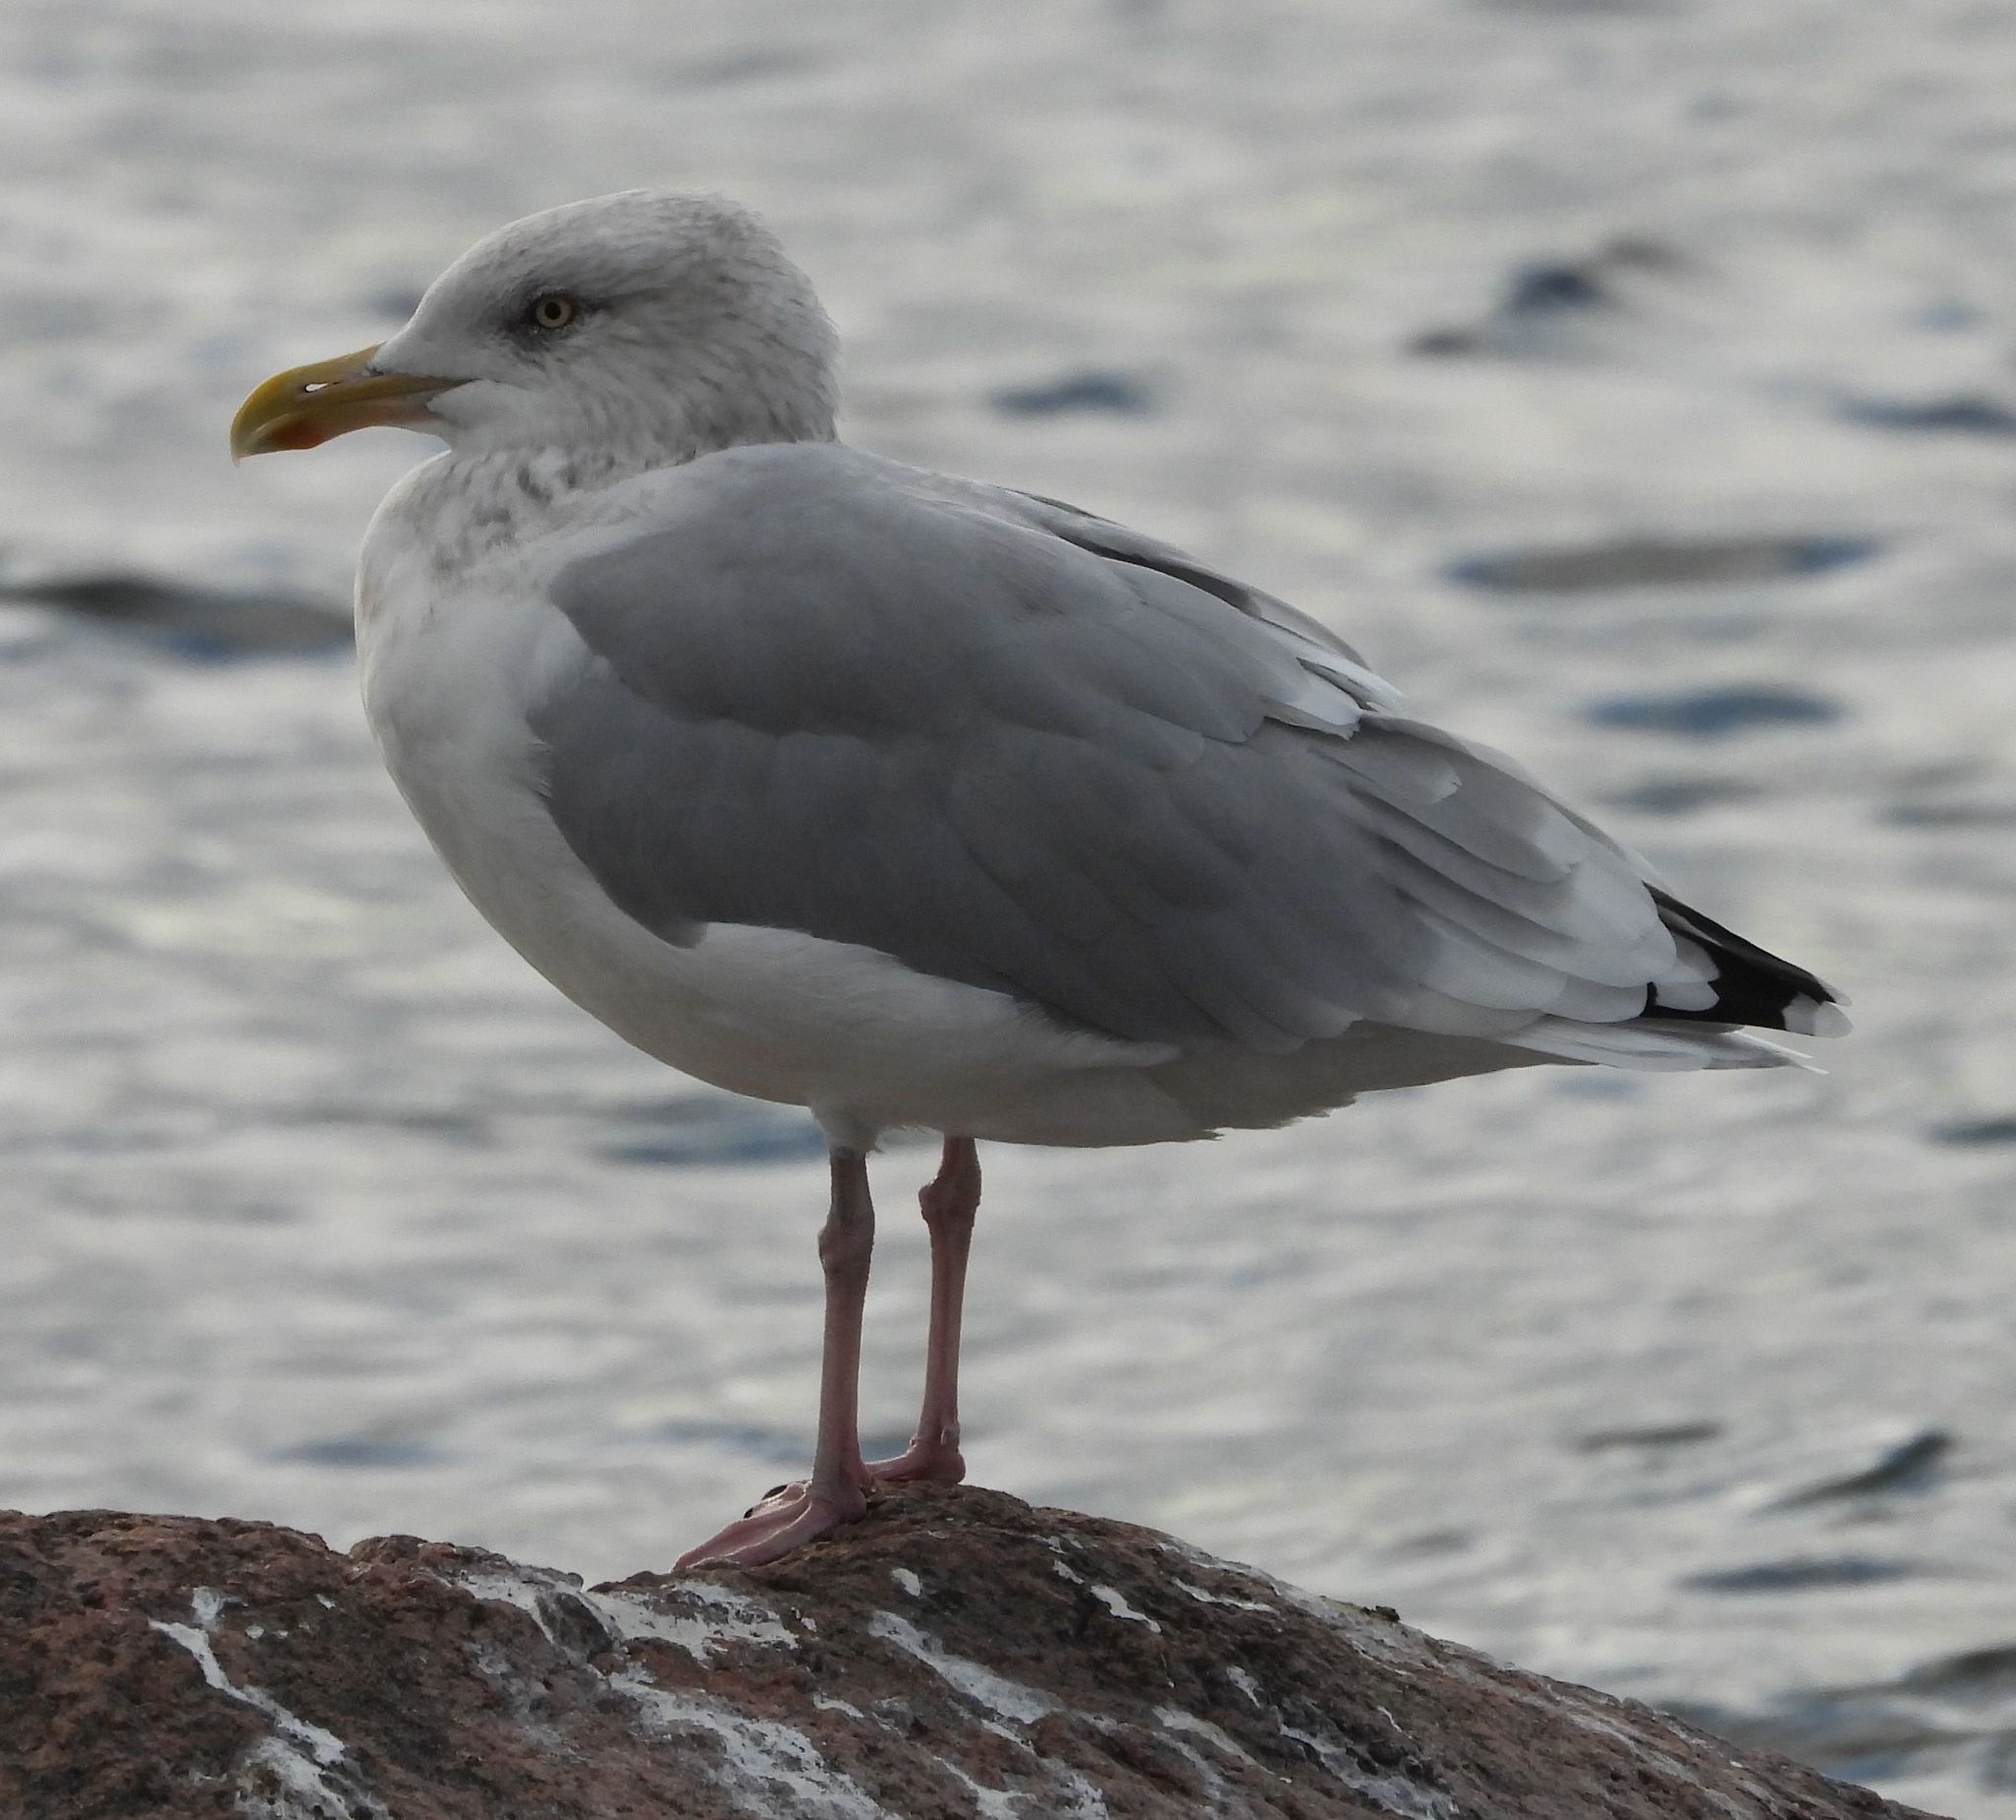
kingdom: Animalia
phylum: Chordata
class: Aves
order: Charadriiformes
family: Laridae
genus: Larus
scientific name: Larus argentatus
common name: Herring gull
